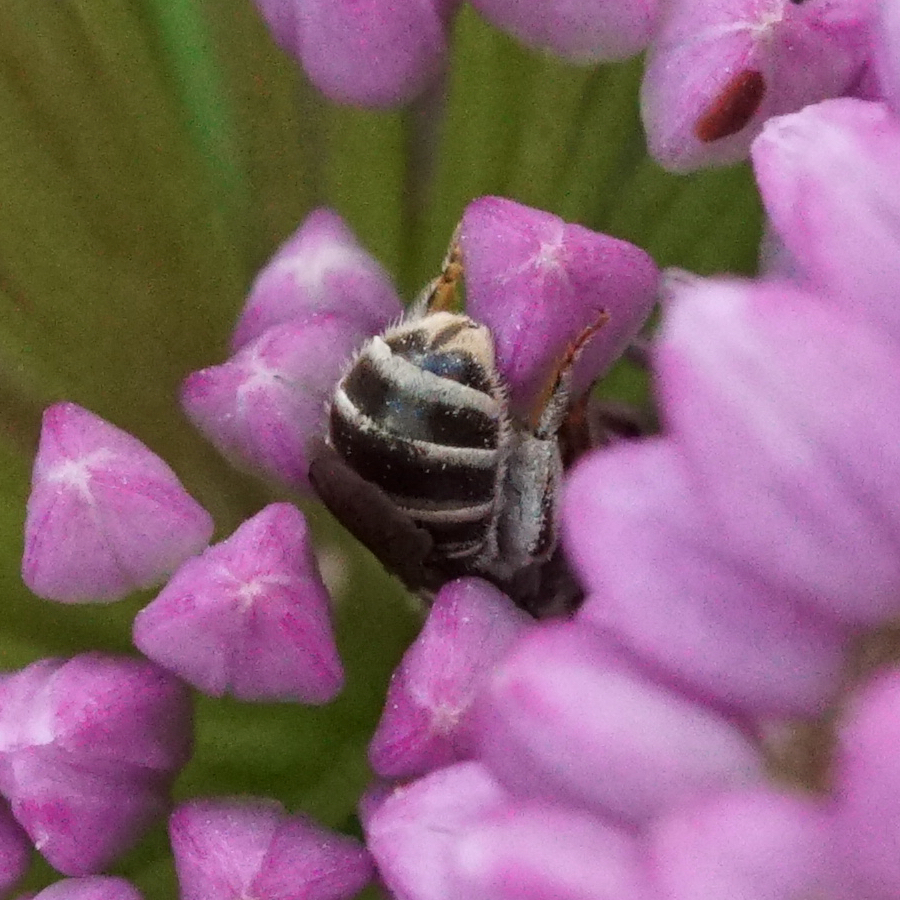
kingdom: Animalia
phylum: Arthropoda
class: Insecta
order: Hymenoptera
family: Halictidae
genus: Halictus
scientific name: Halictus confusus
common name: Southern bronze furrow bee
